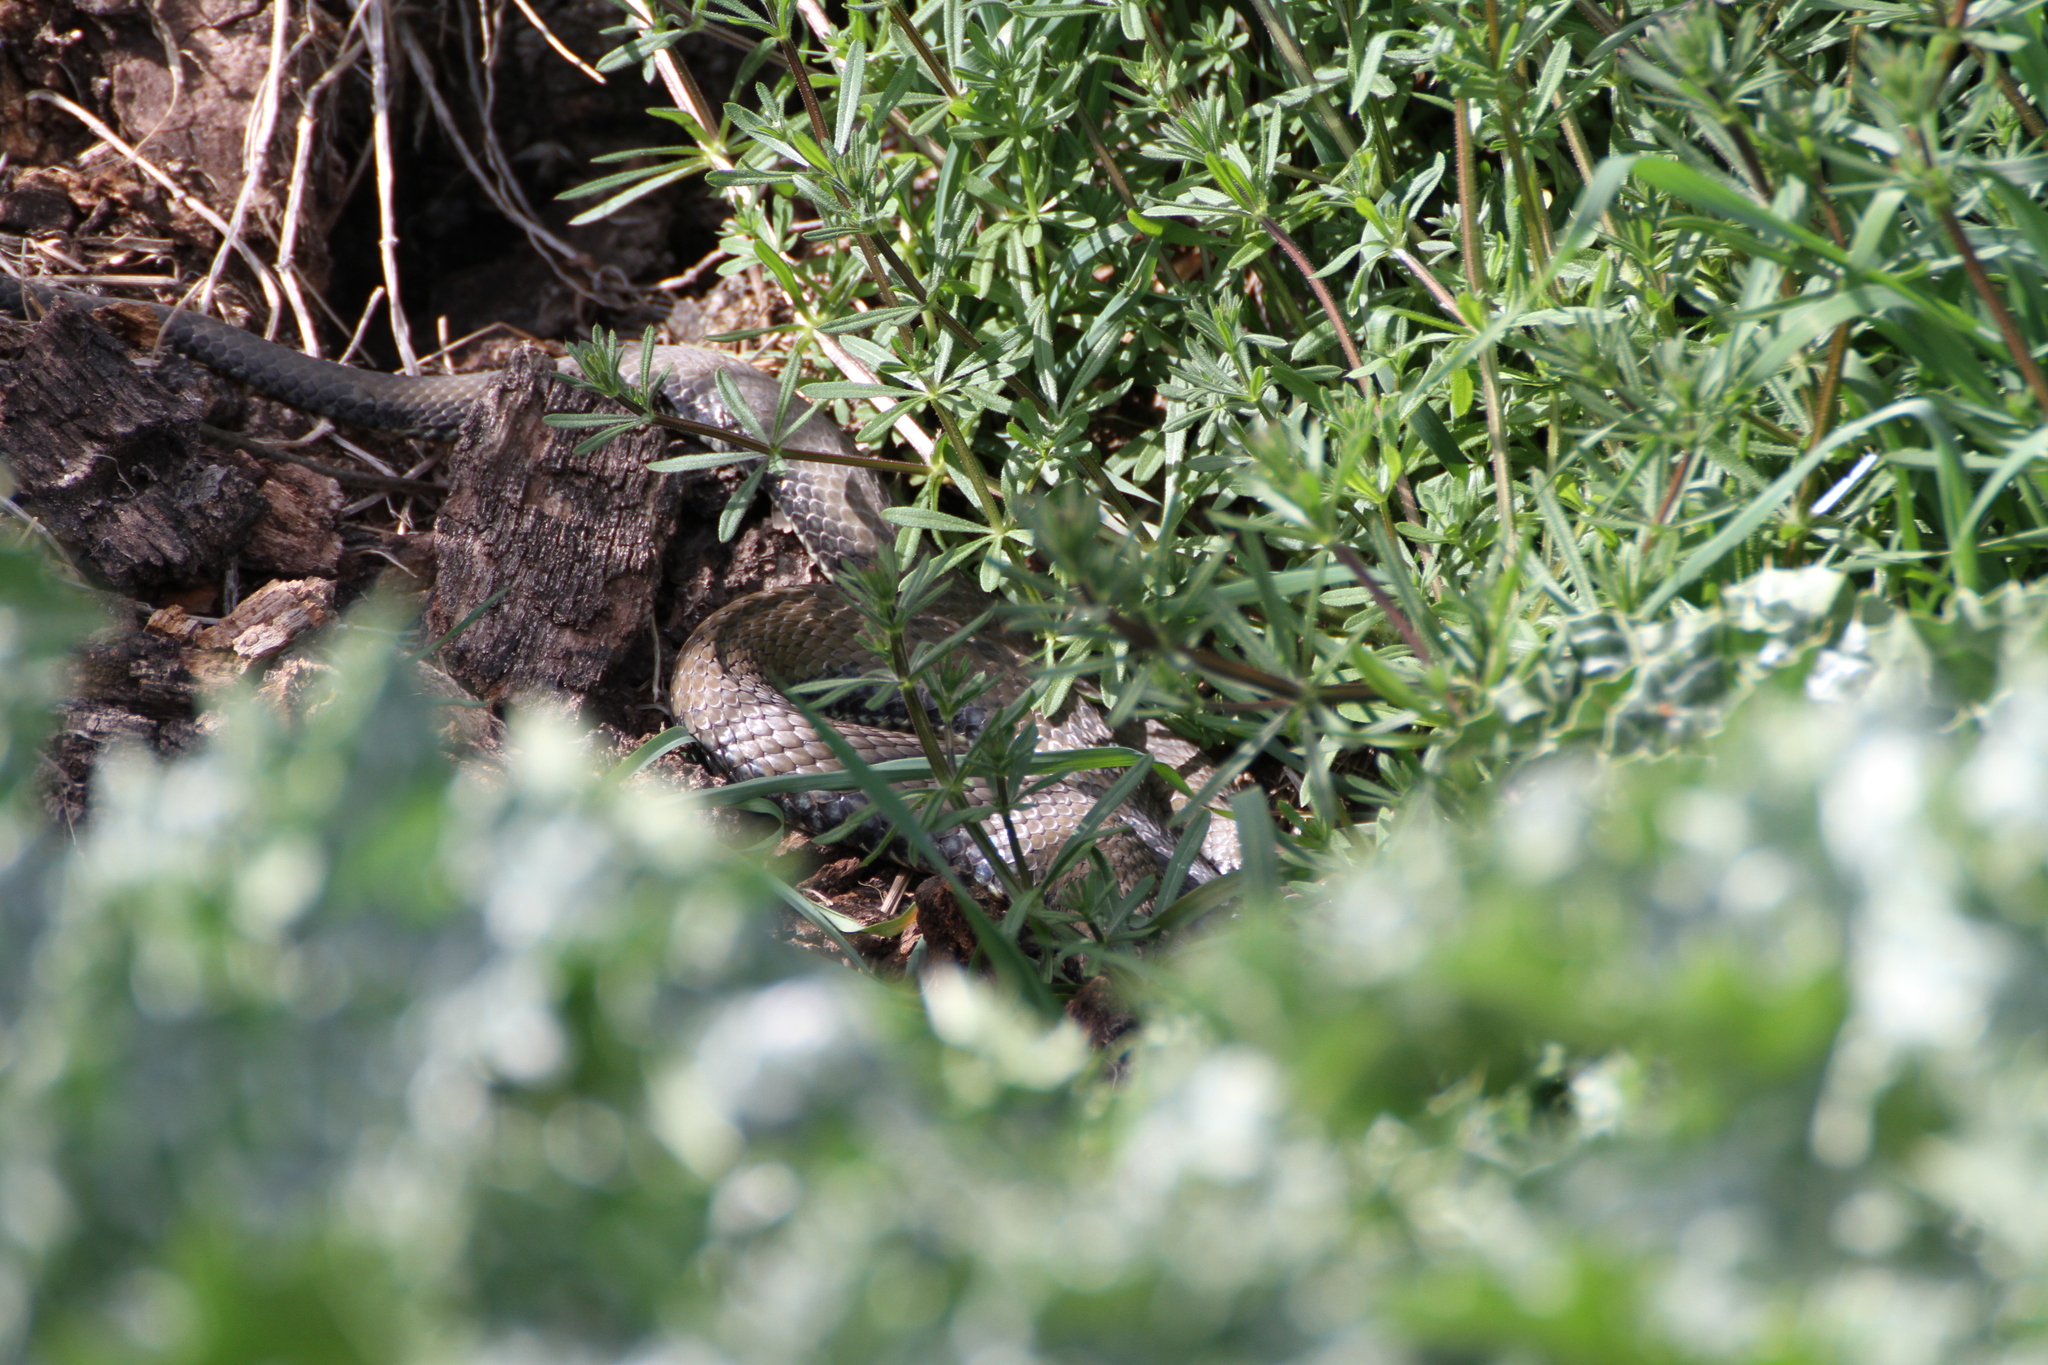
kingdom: Animalia
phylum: Chordata
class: Squamata
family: Psammophiidae
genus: Malpolon
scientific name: Malpolon monspessulanus
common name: Montpellier snake
